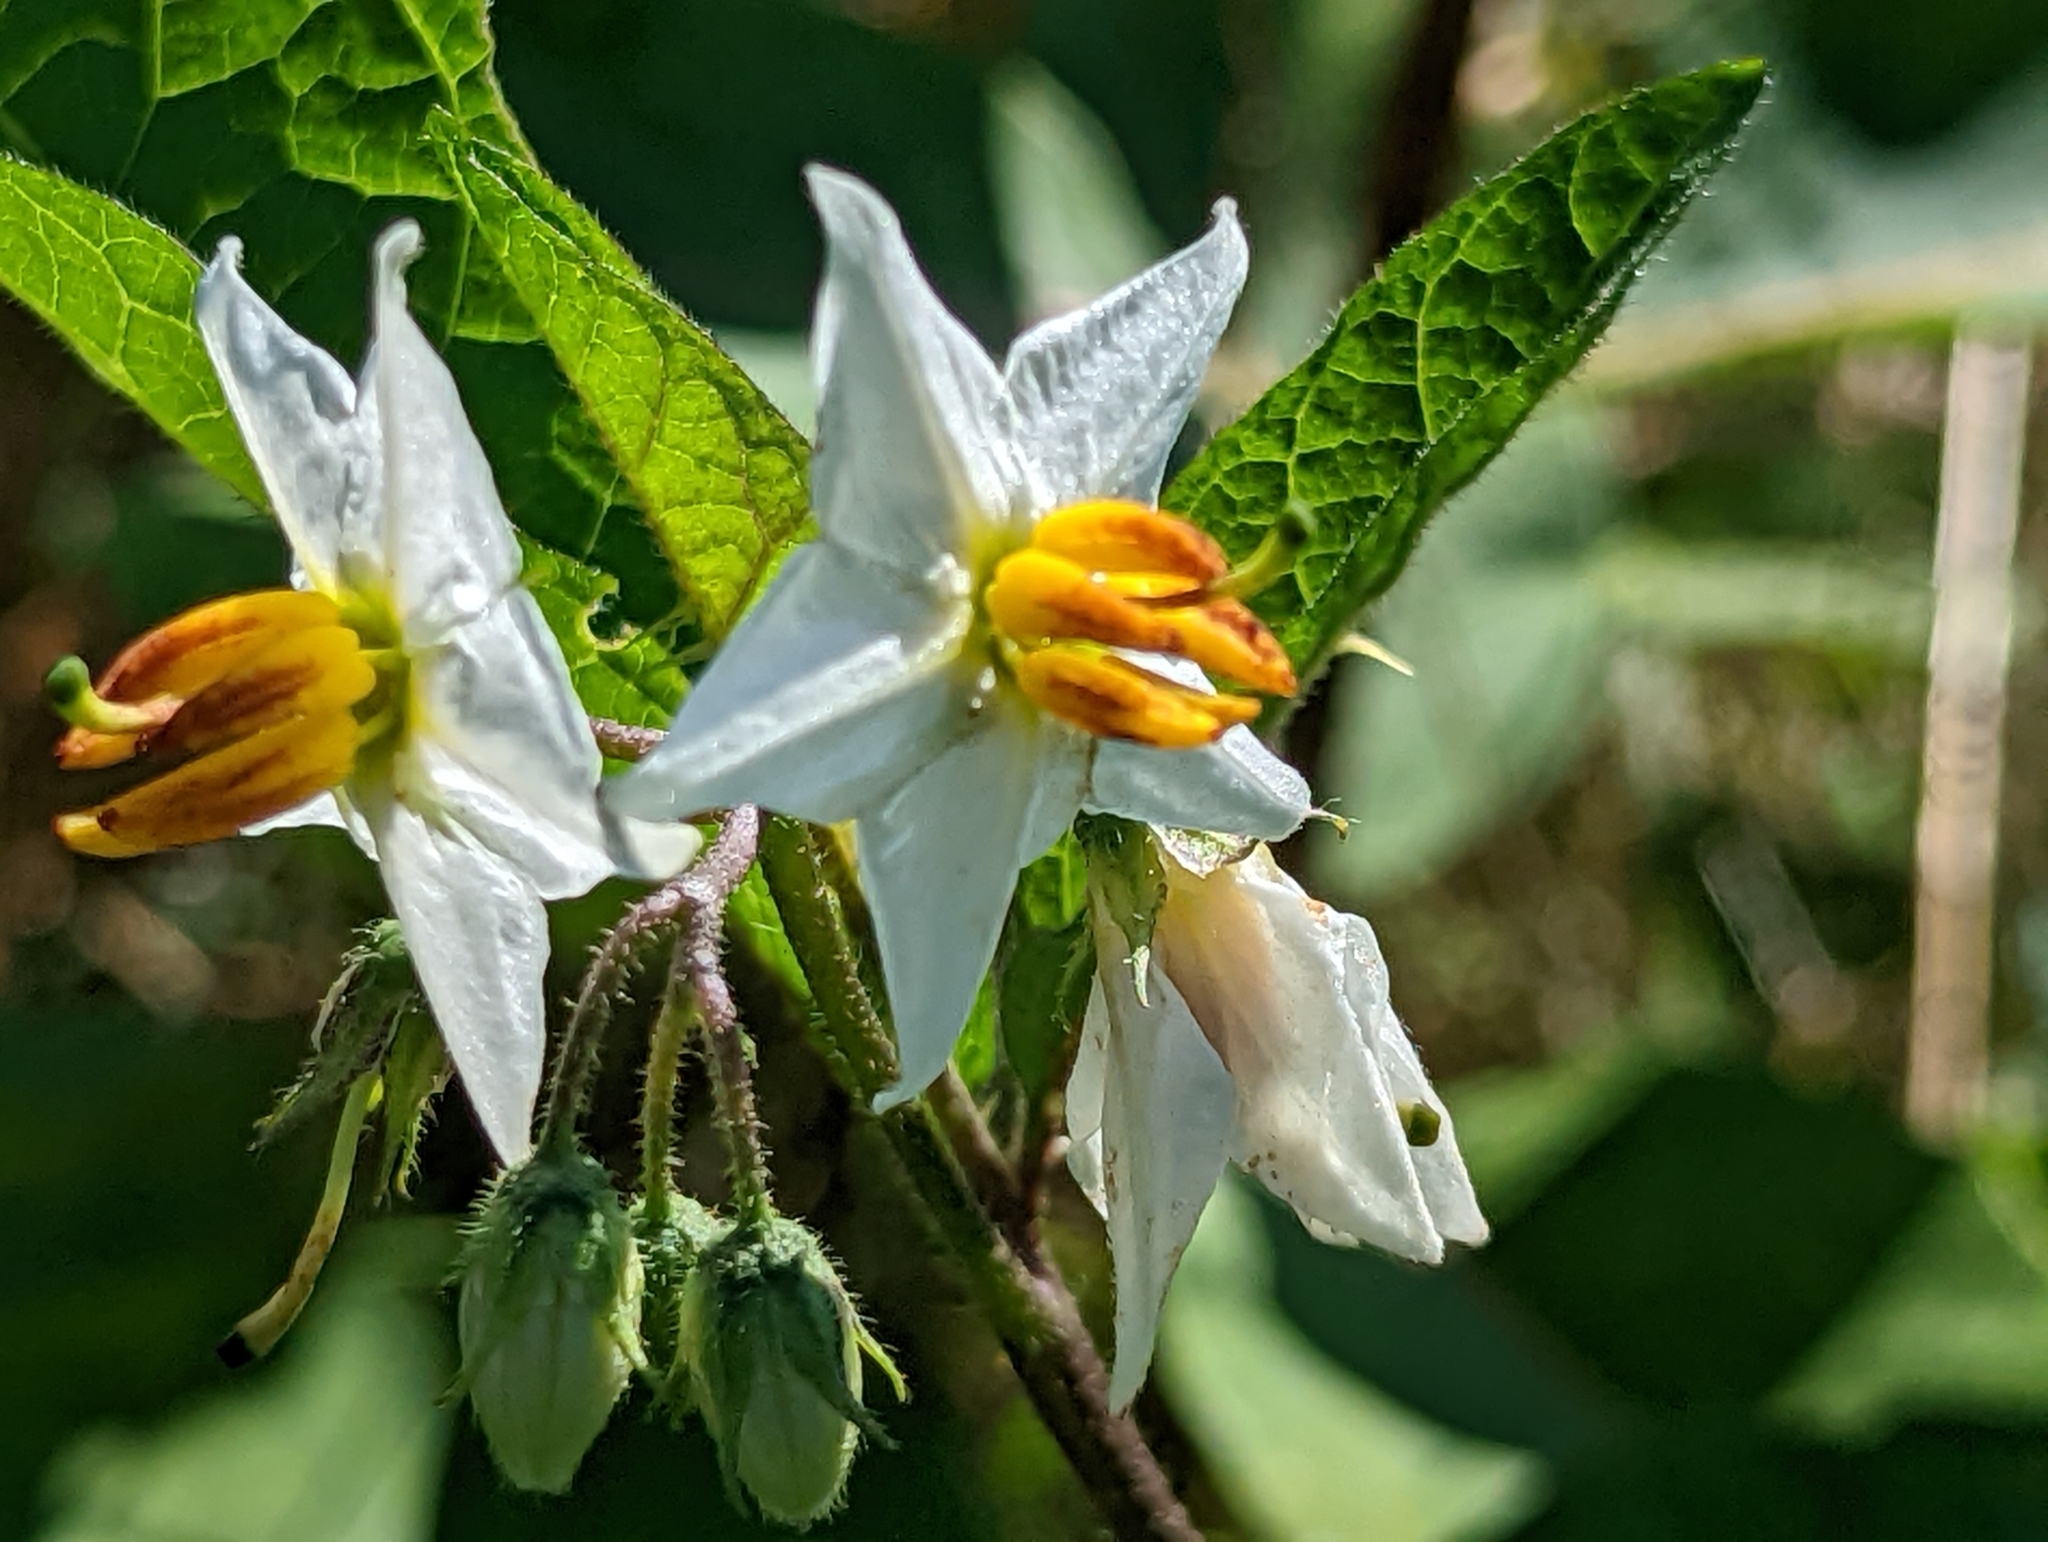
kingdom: Plantae
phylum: Tracheophyta
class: Magnoliopsida
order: Solanales
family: Solanaceae
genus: Solanum
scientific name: Solanum carolinense
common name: Horse-nettle
